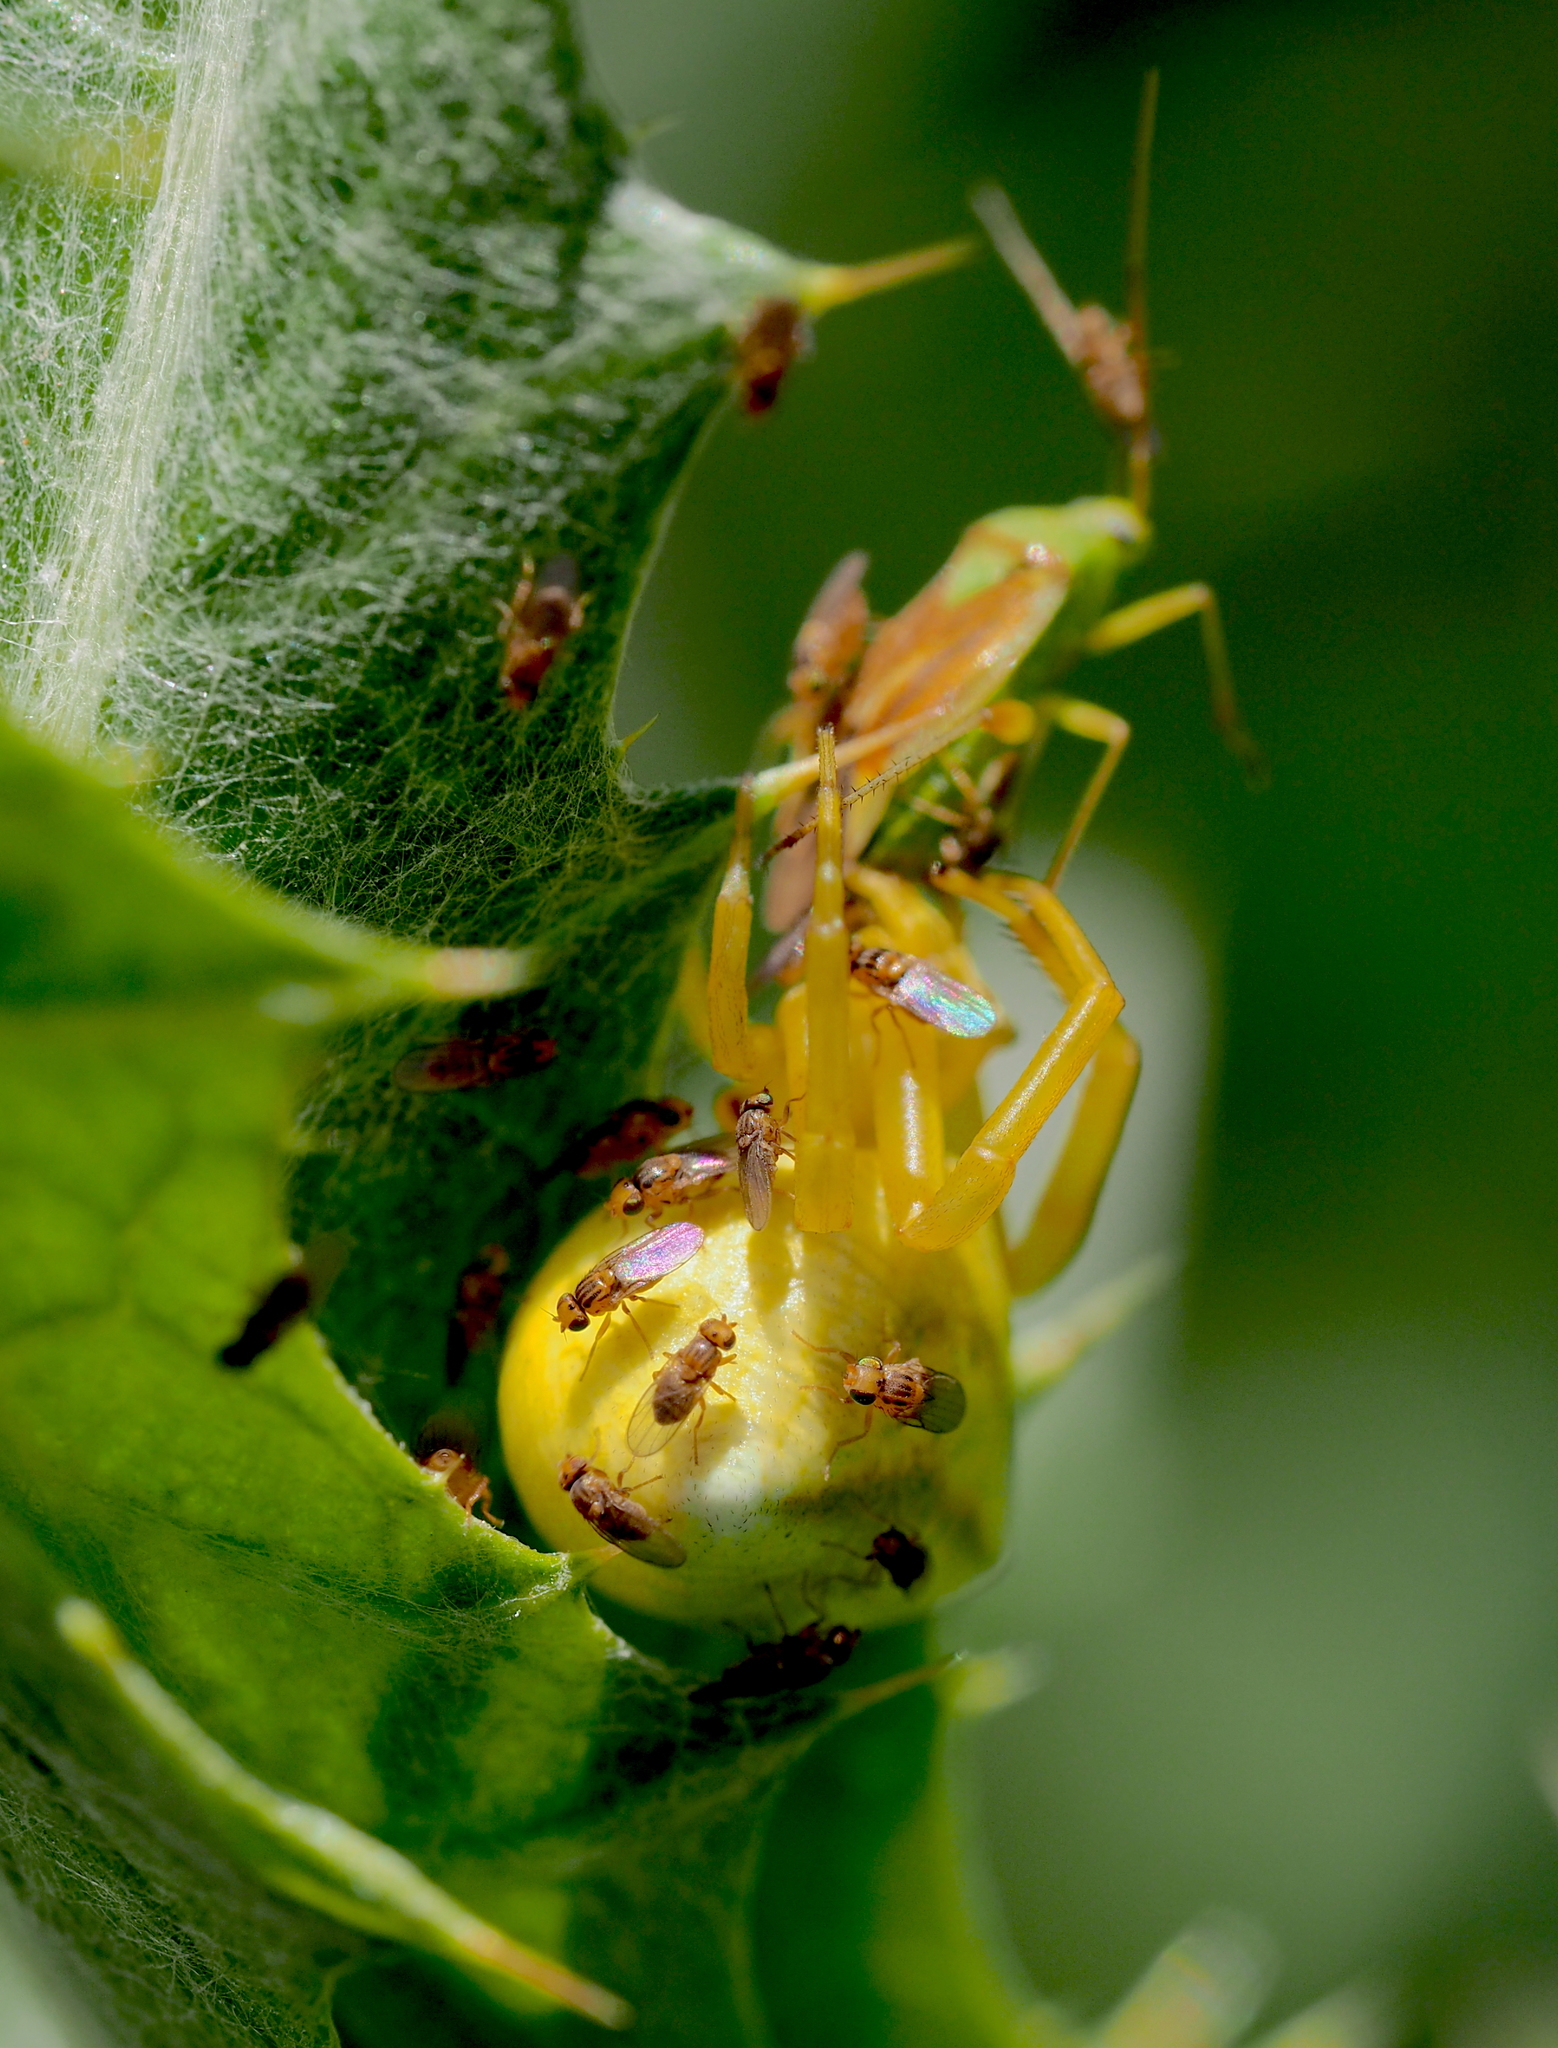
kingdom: Animalia
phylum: Arthropoda
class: Arachnida
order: Araneae
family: Thomisidae
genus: Thomisus
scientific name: Thomisus onustus
